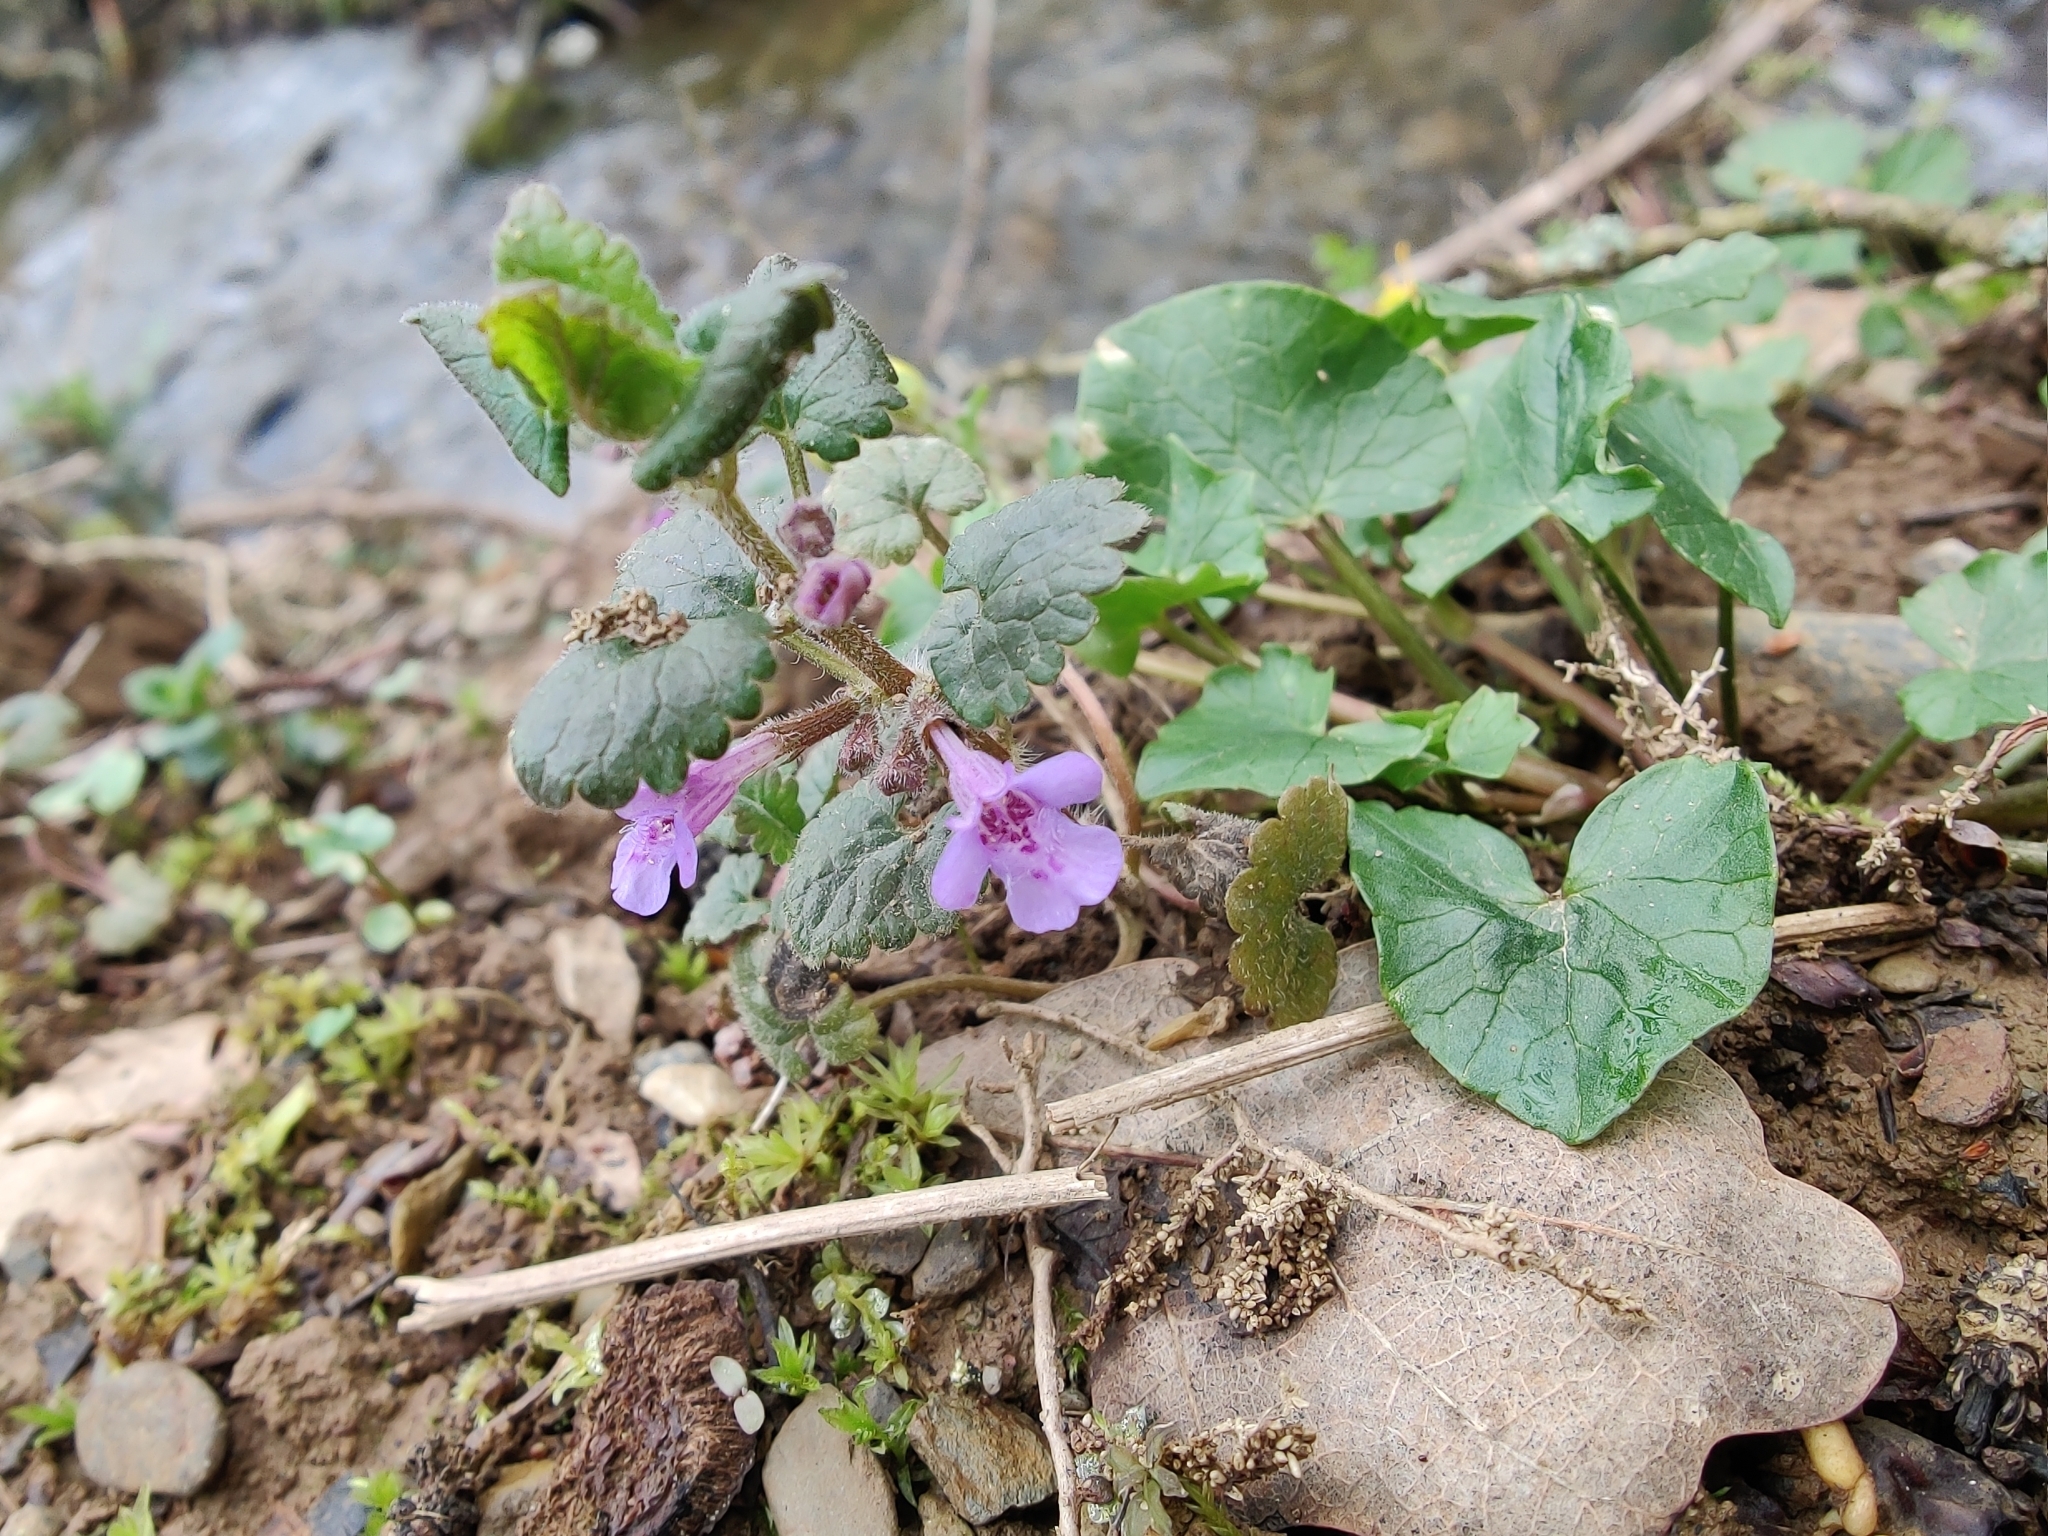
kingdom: Plantae
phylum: Tracheophyta
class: Magnoliopsida
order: Lamiales
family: Lamiaceae
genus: Glechoma
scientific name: Glechoma hederacea
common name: Ground ivy
